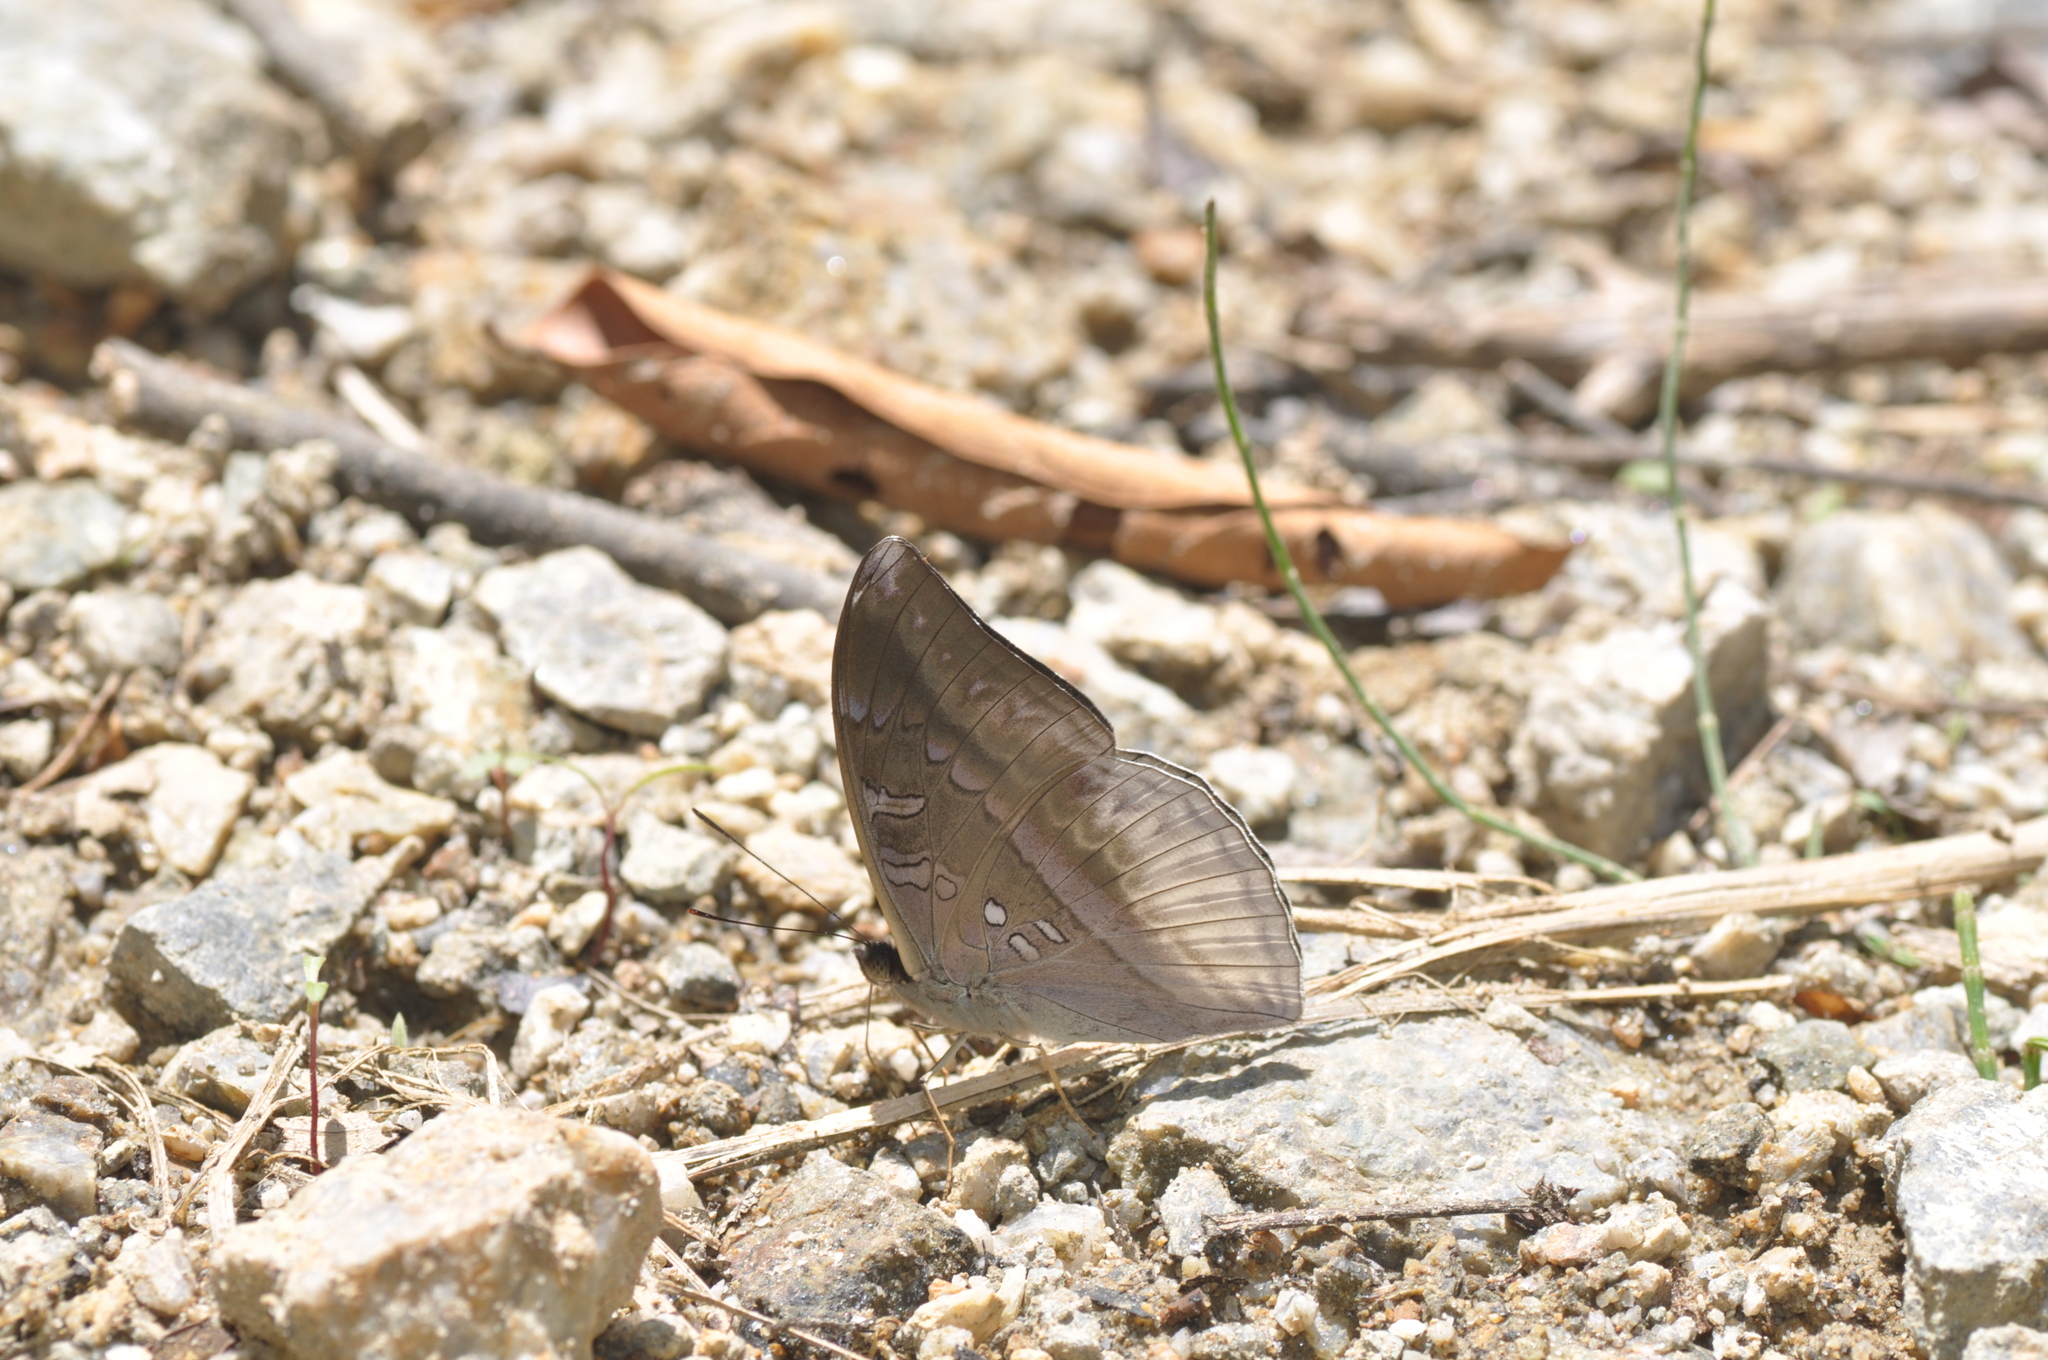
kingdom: Animalia
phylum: Arthropoda
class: Insecta
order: Lepidoptera
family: Nymphalidae
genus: Limenitis
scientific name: Limenitis Auzakia danava
